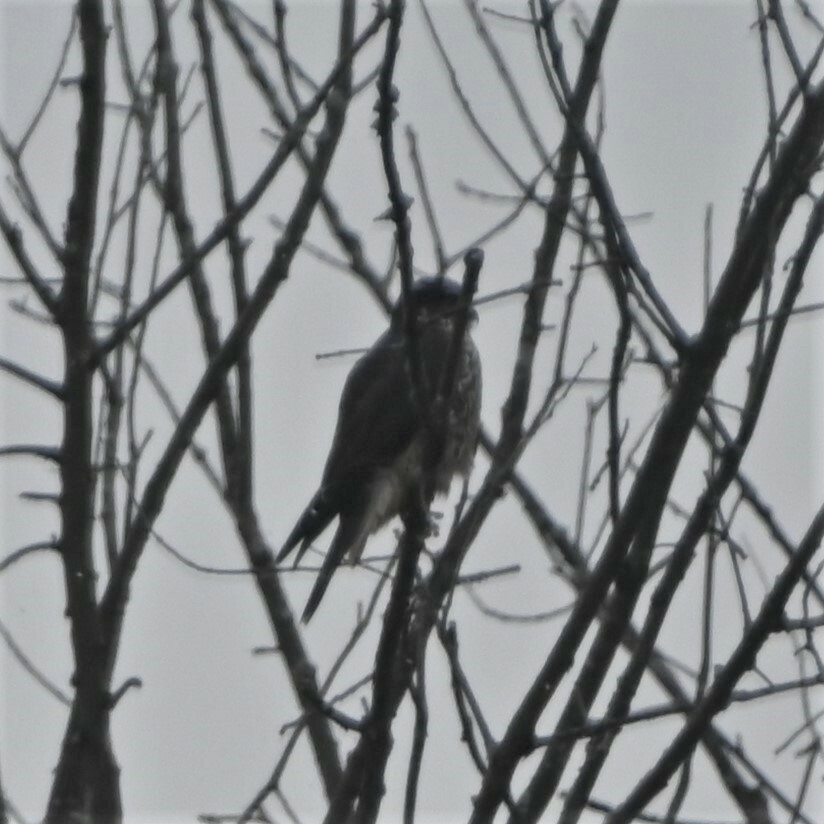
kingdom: Animalia
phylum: Chordata
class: Aves
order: Falconiformes
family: Falconidae
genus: Falco
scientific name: Falco columbarius
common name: Merlin
